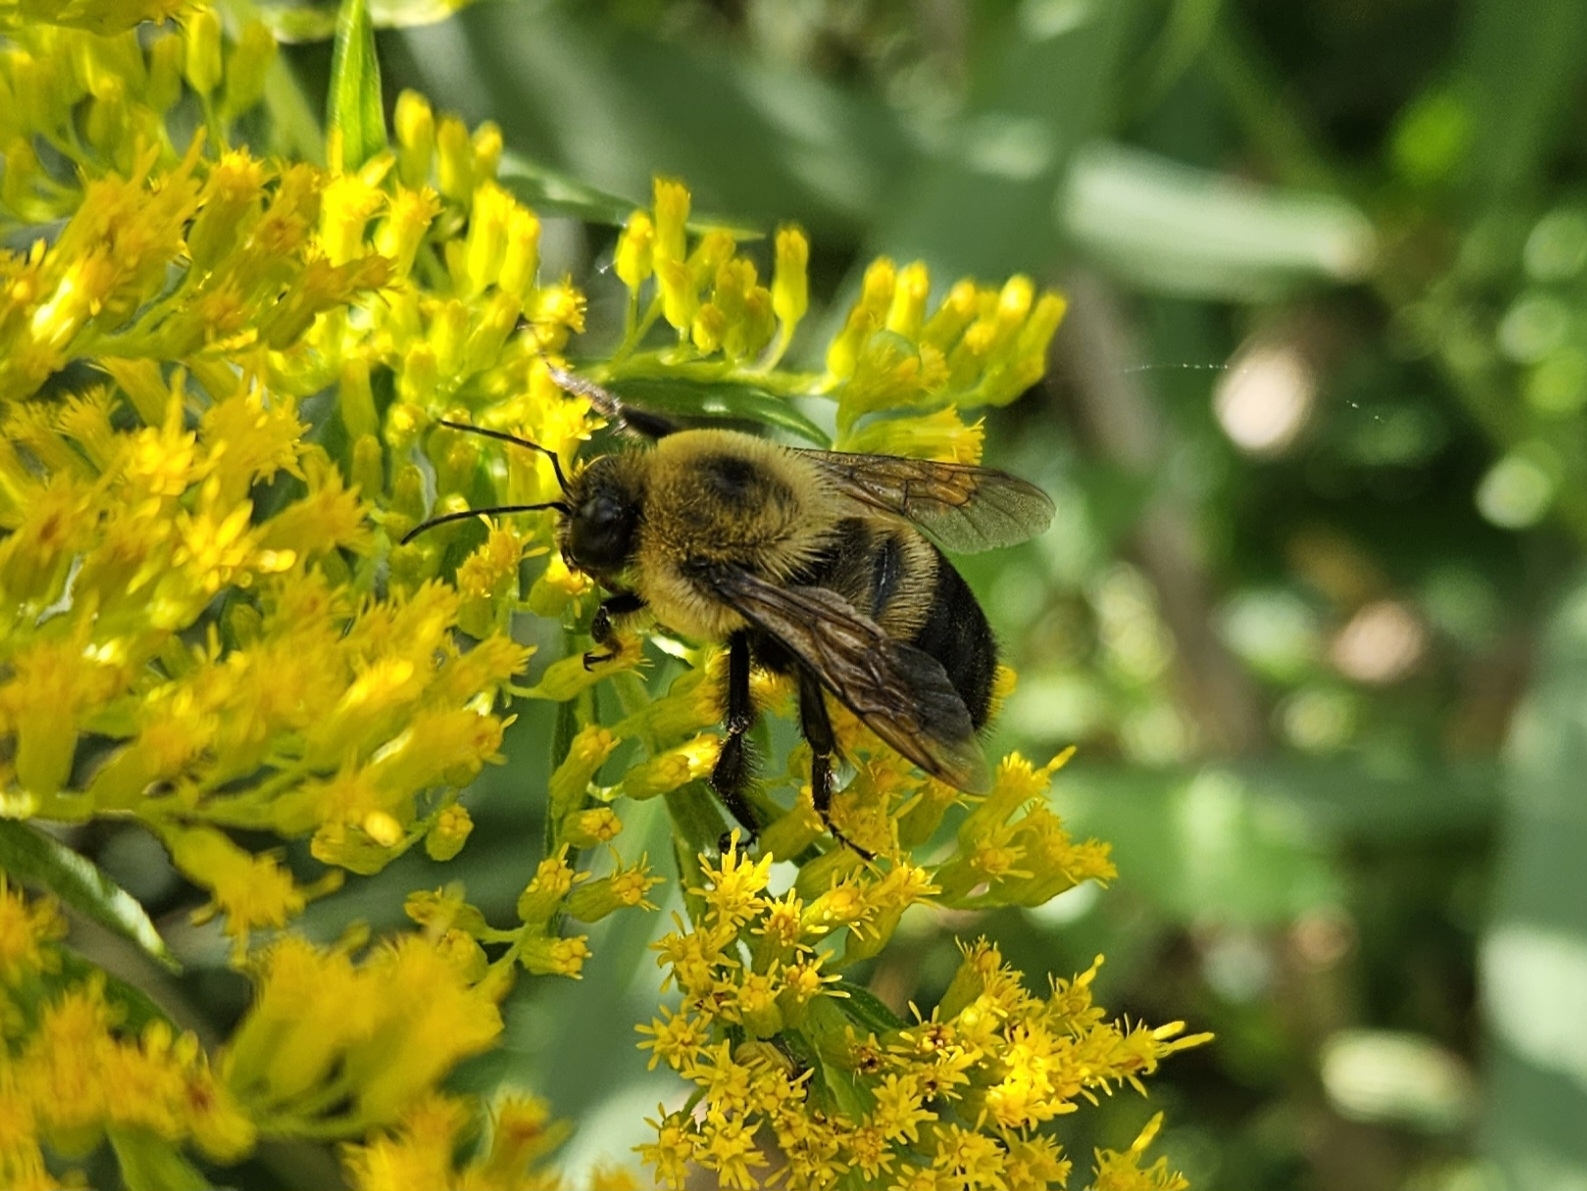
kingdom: Animalia
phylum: Arthropoda
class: Insecta
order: Hymenoptera
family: Apidae
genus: Bombus
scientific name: Bombus griseocollis
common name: Brown-belted bumble bee
